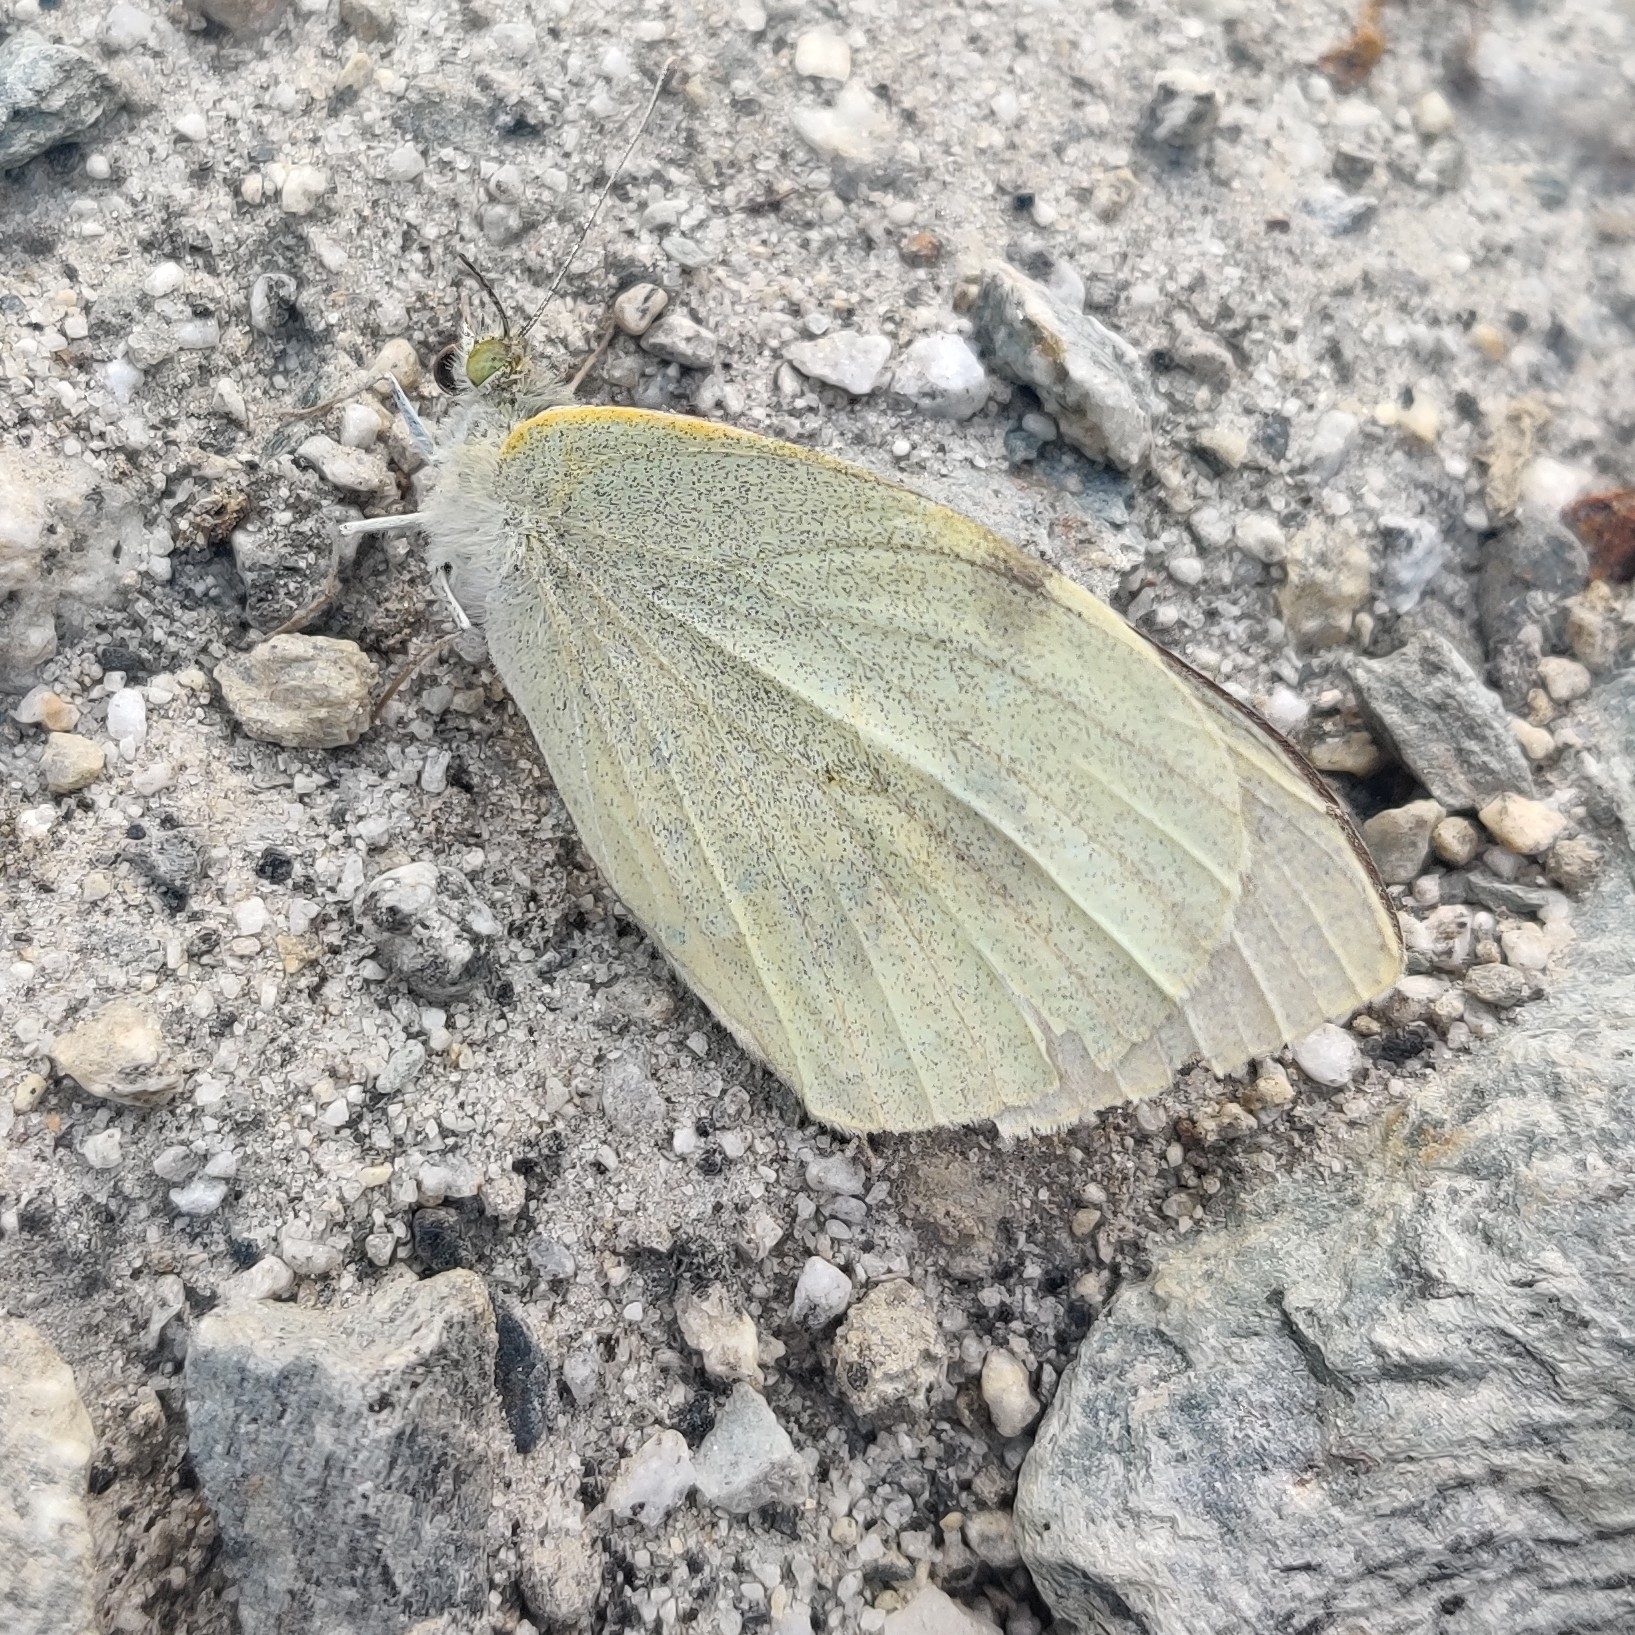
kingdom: Animalia
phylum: Arthropoda
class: Insecta
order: Lepidoptera
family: Pieridae
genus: Pieris
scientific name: Pieris brassicae
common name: Large white
